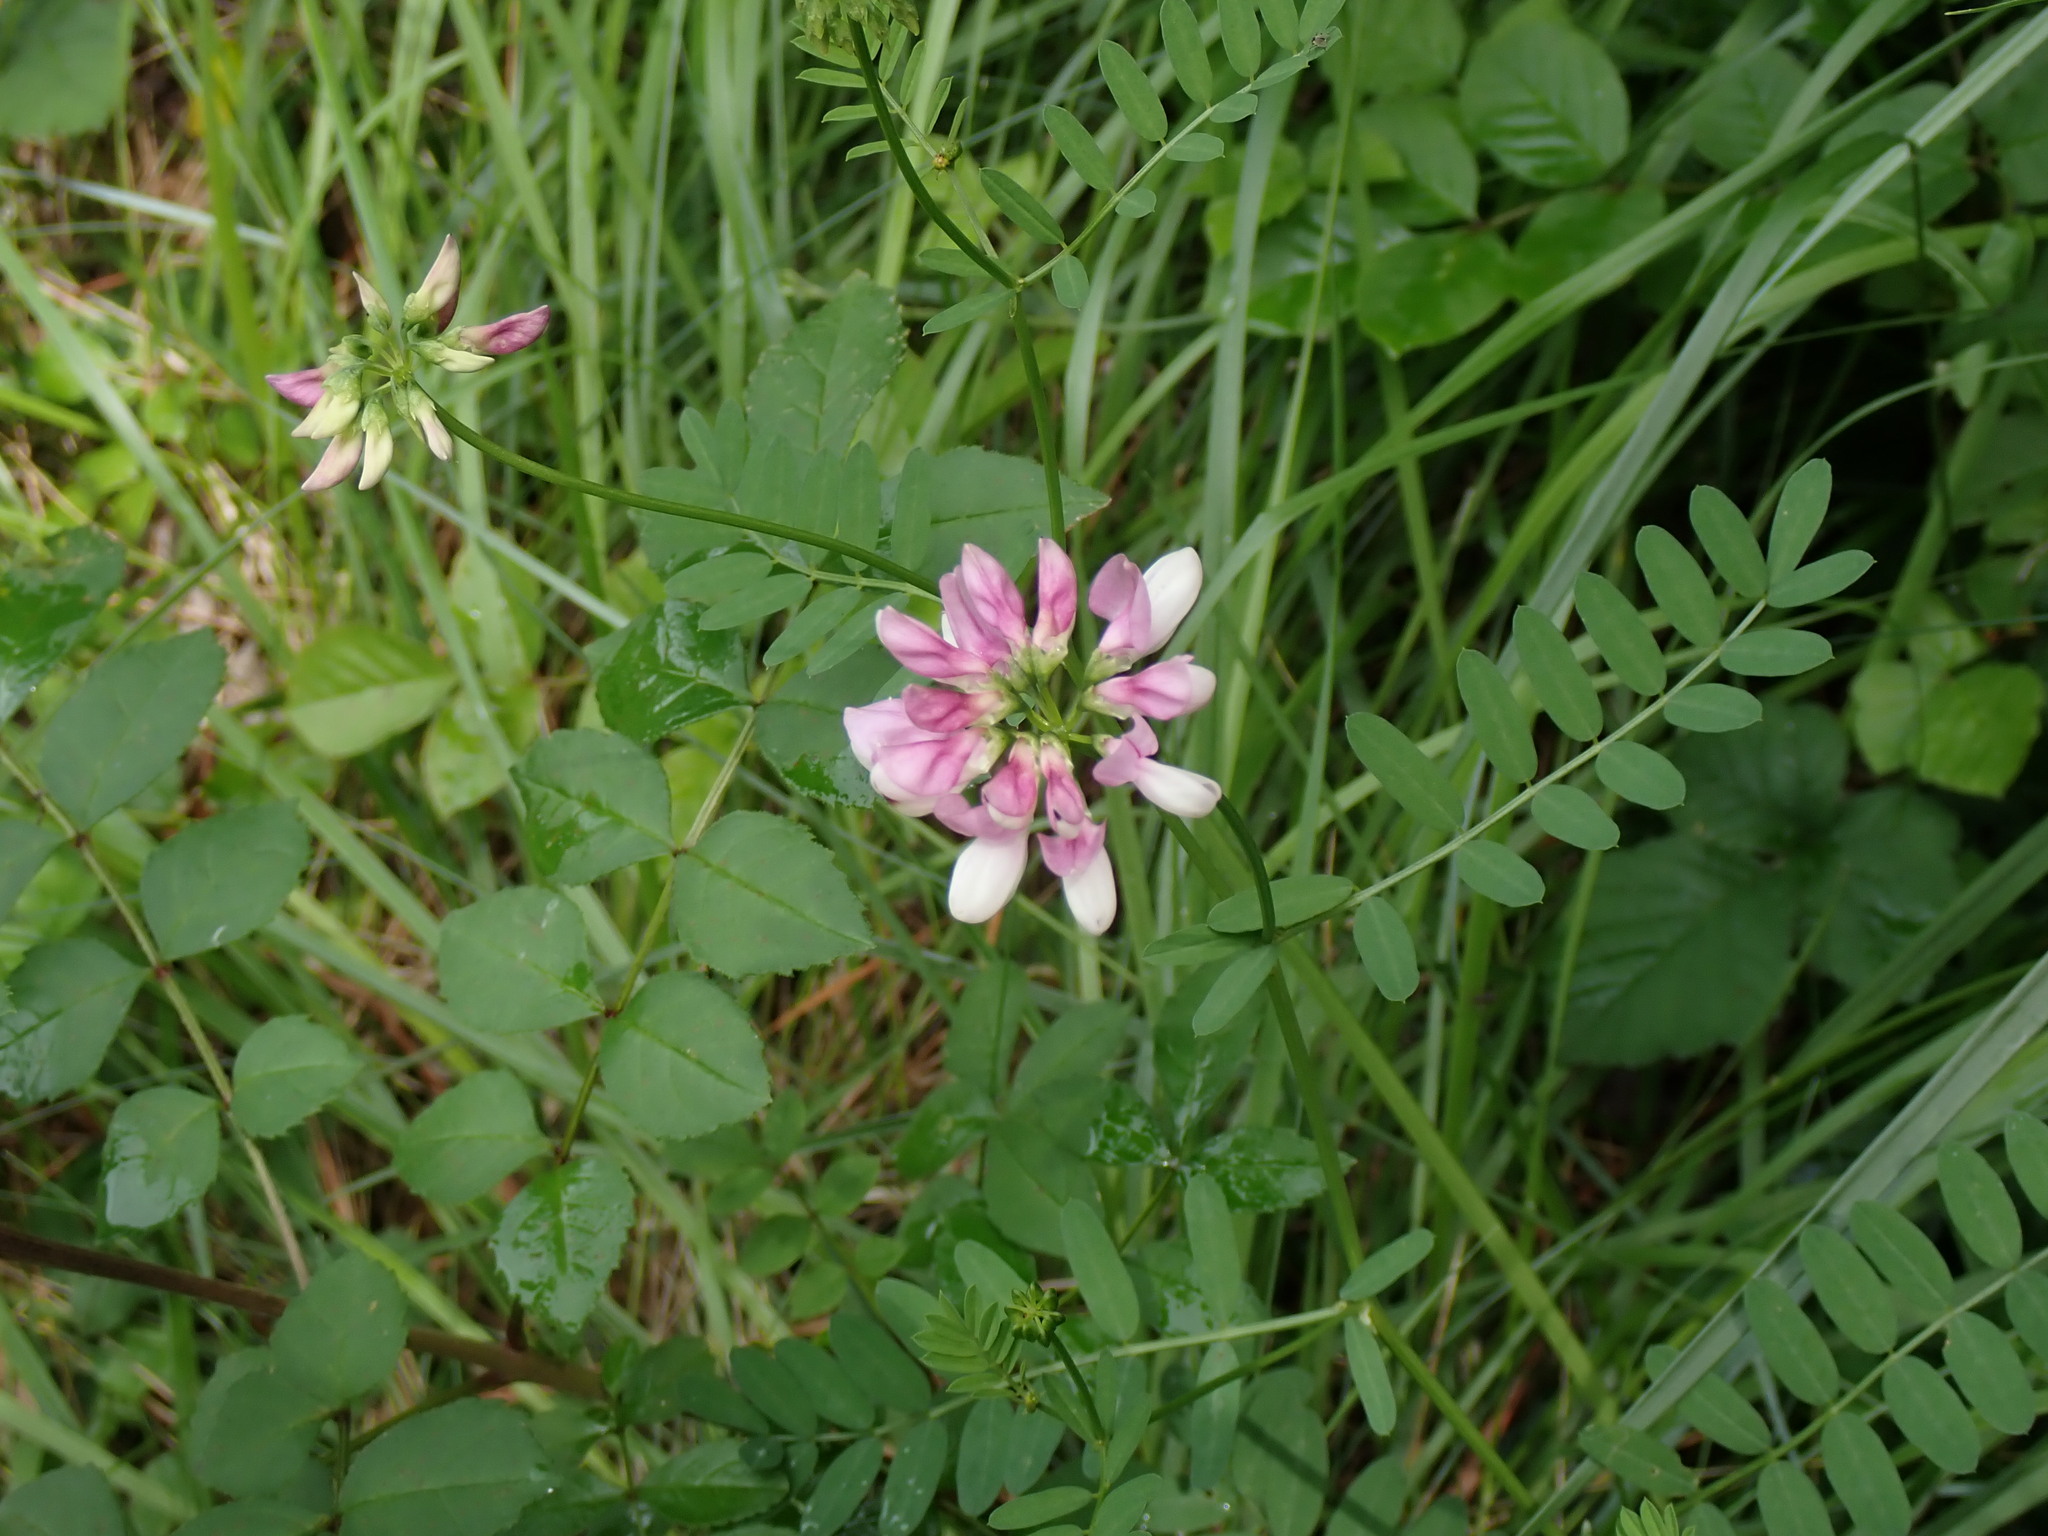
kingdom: Plantae
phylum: Tracheophyta
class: Magnoliopsida
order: Fabales
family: Fabaceae
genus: Coronilla
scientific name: Coronilla varia
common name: Crownvetch
